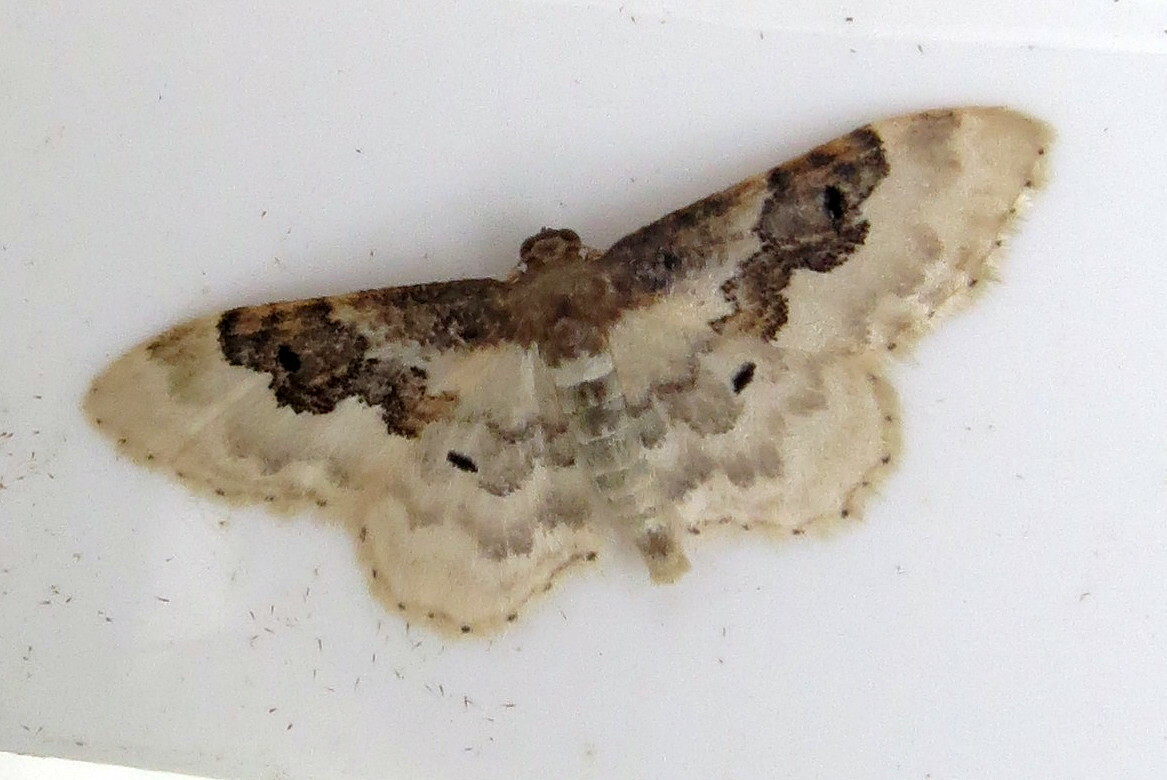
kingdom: Animalia
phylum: Arthropoda
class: Insecta
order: Lepidoptera
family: Geometridae
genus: Idaea
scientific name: Idaea rusticata
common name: Least carpet
